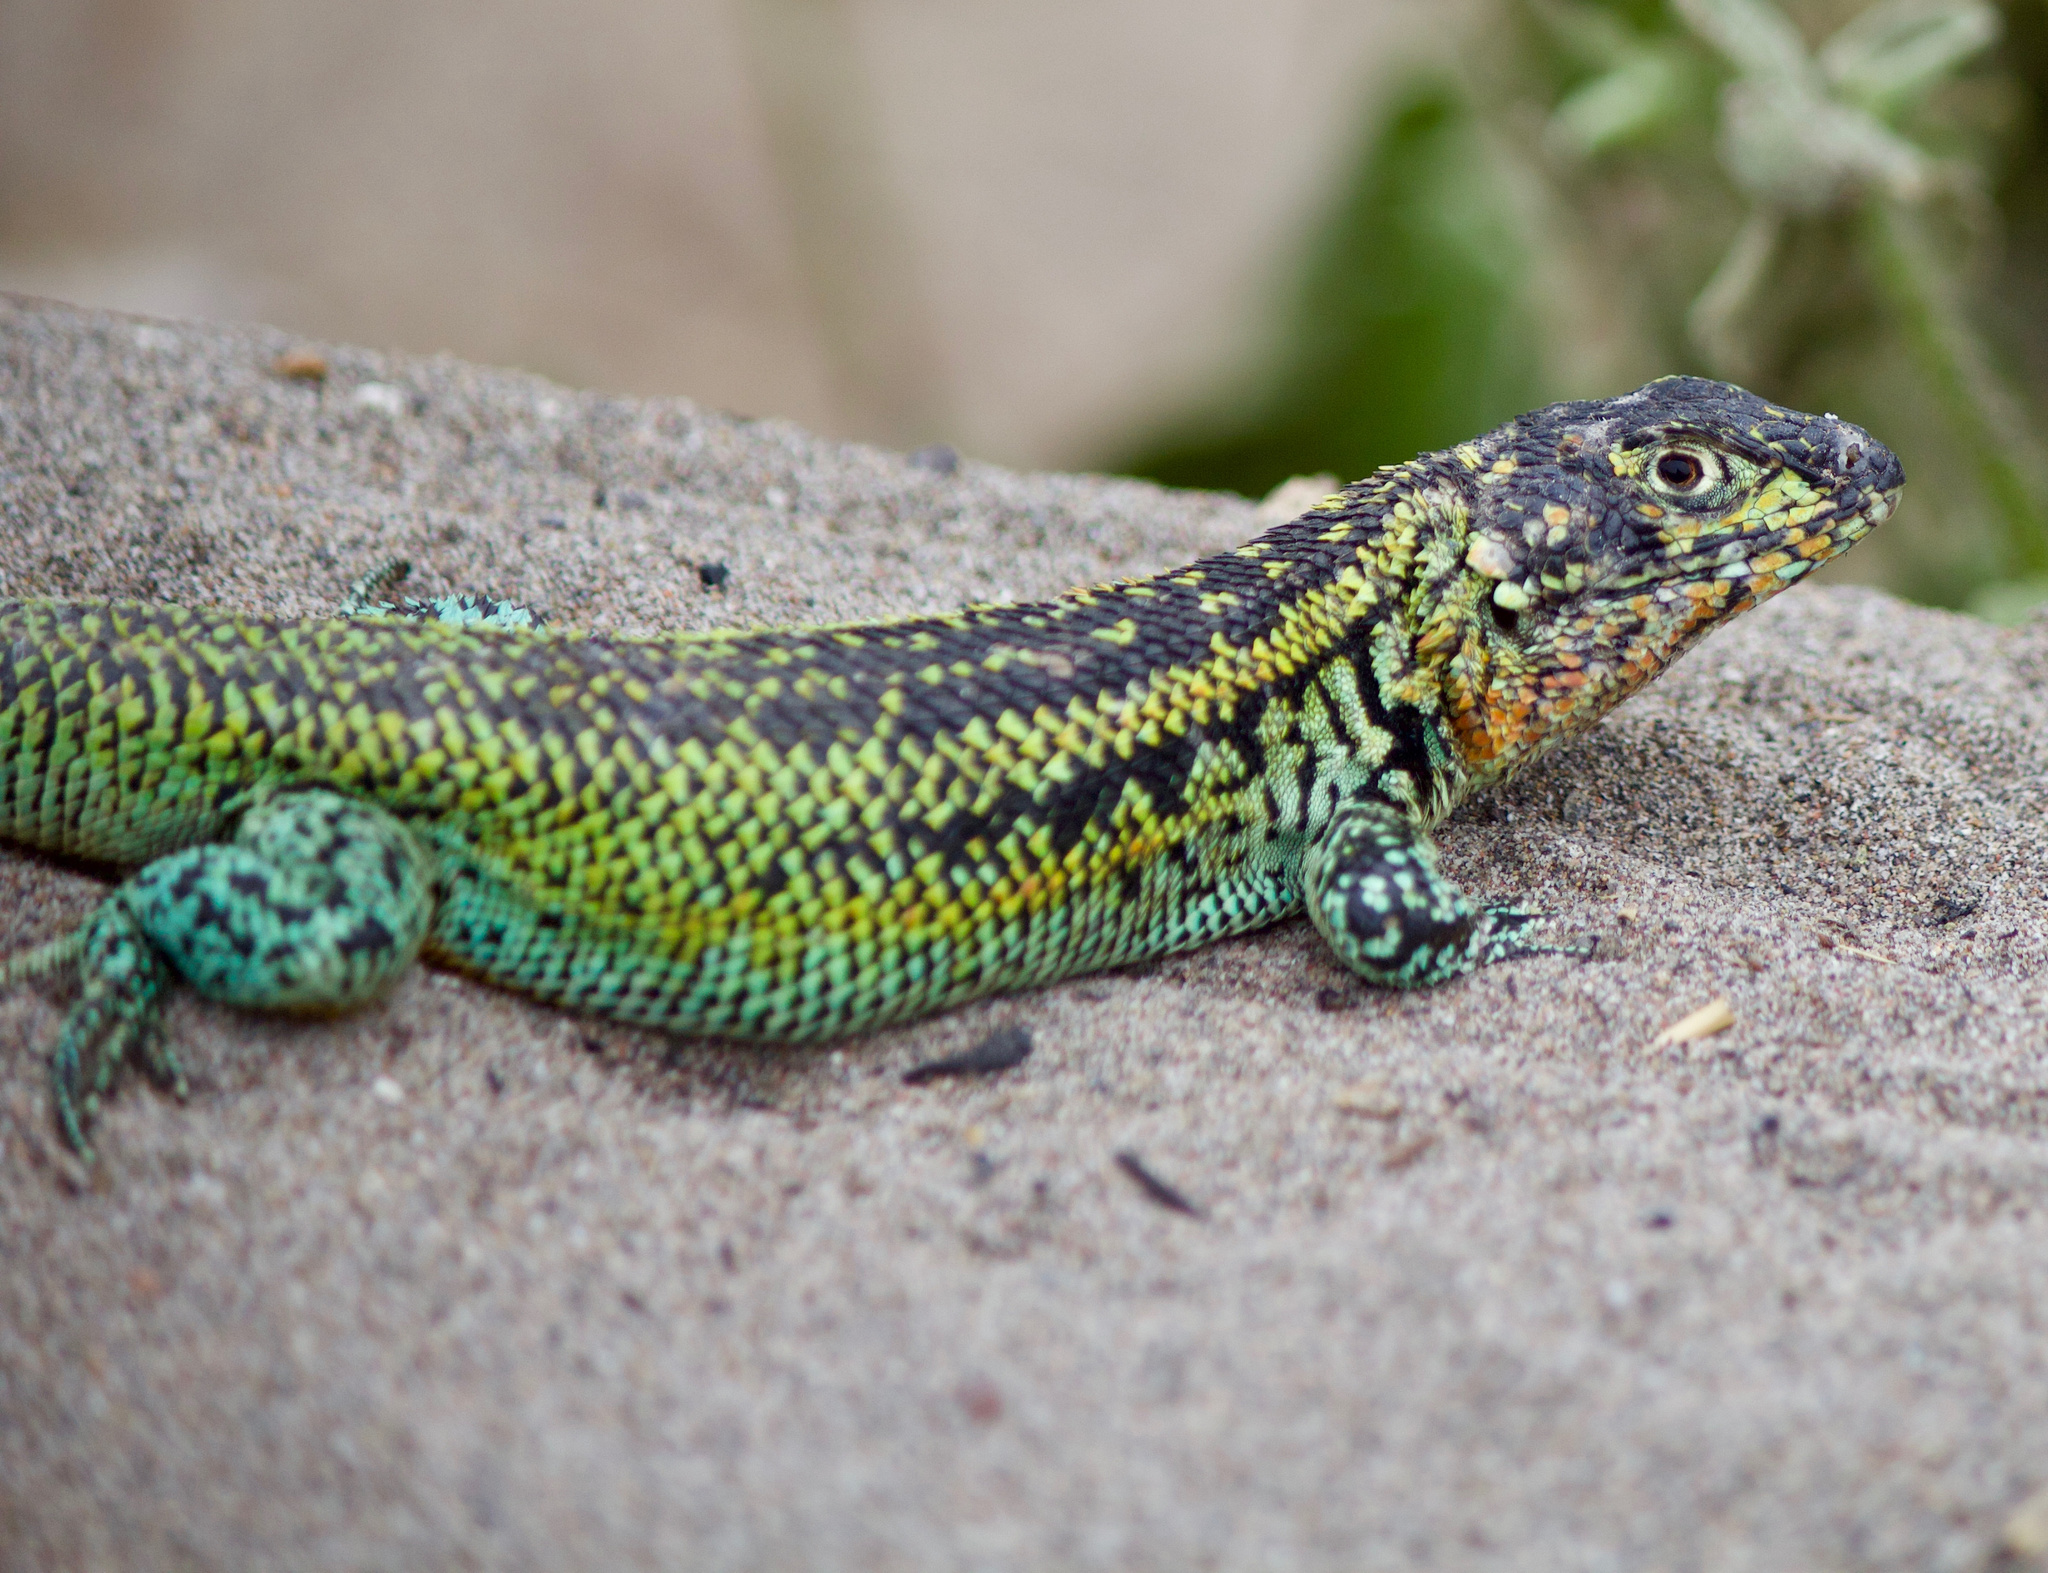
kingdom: Animalia
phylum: Chordata
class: Squamata
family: Liolaemidae
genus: Liolaemus
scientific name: Liolaemus zapallarensis
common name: Zapallaren tree iguana
